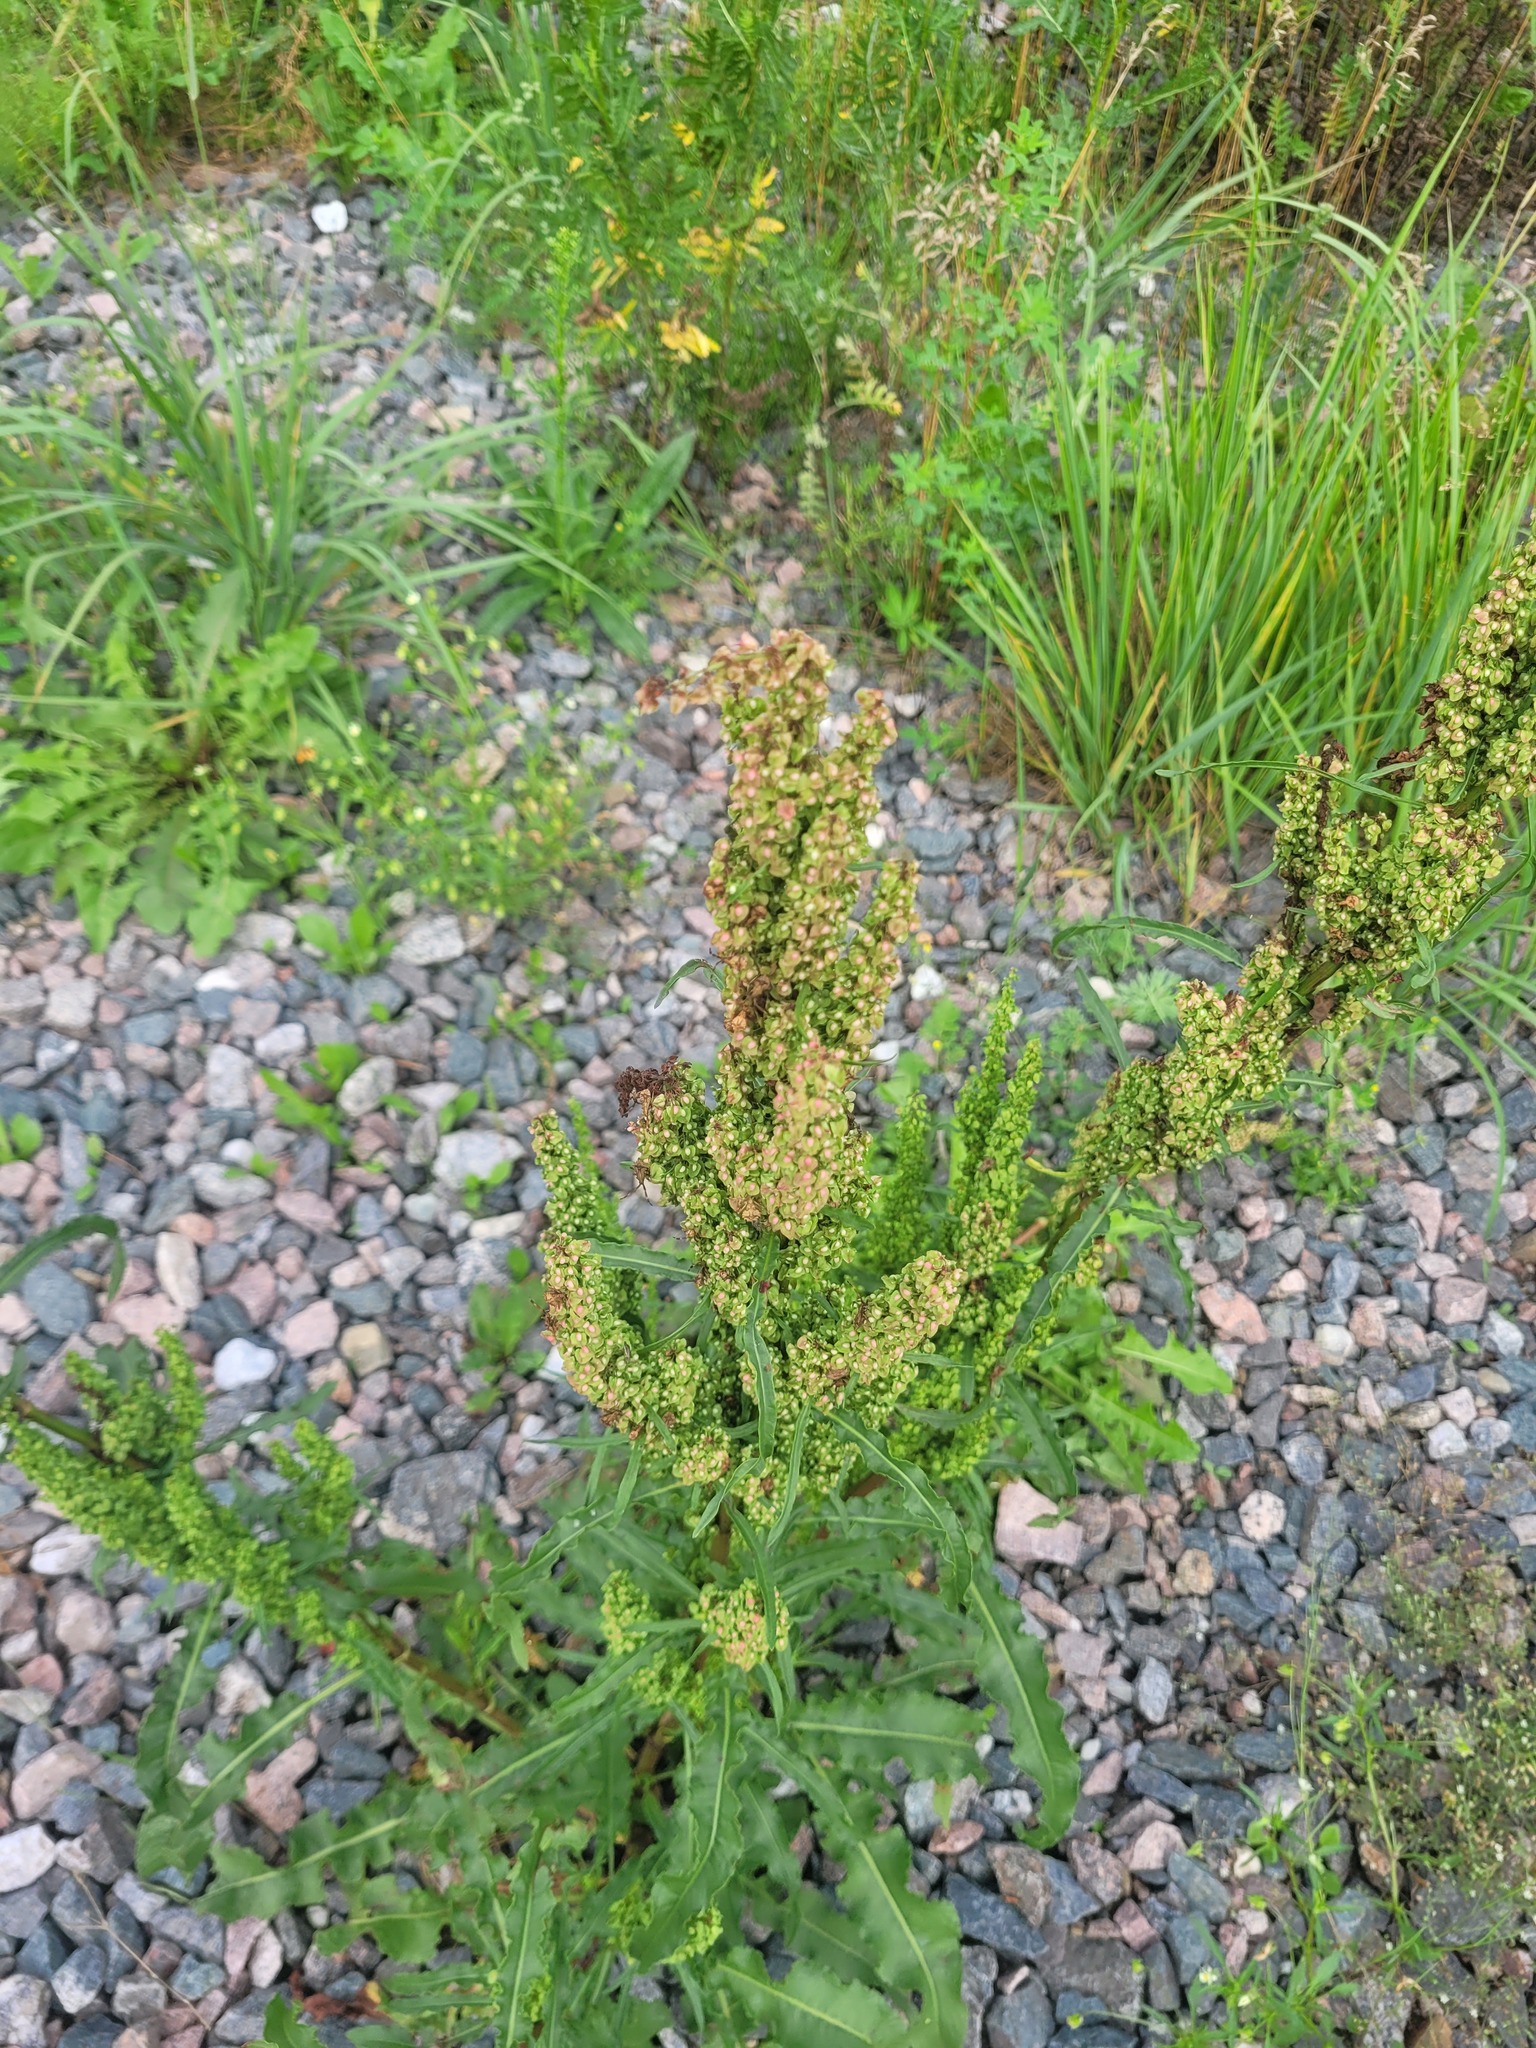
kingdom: Plantae
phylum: Tracheophyta
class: Magnoliopsida
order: Caryophyllales
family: Polygonaceae
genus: Rumex
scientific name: Rumex crispus
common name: Curled dock
